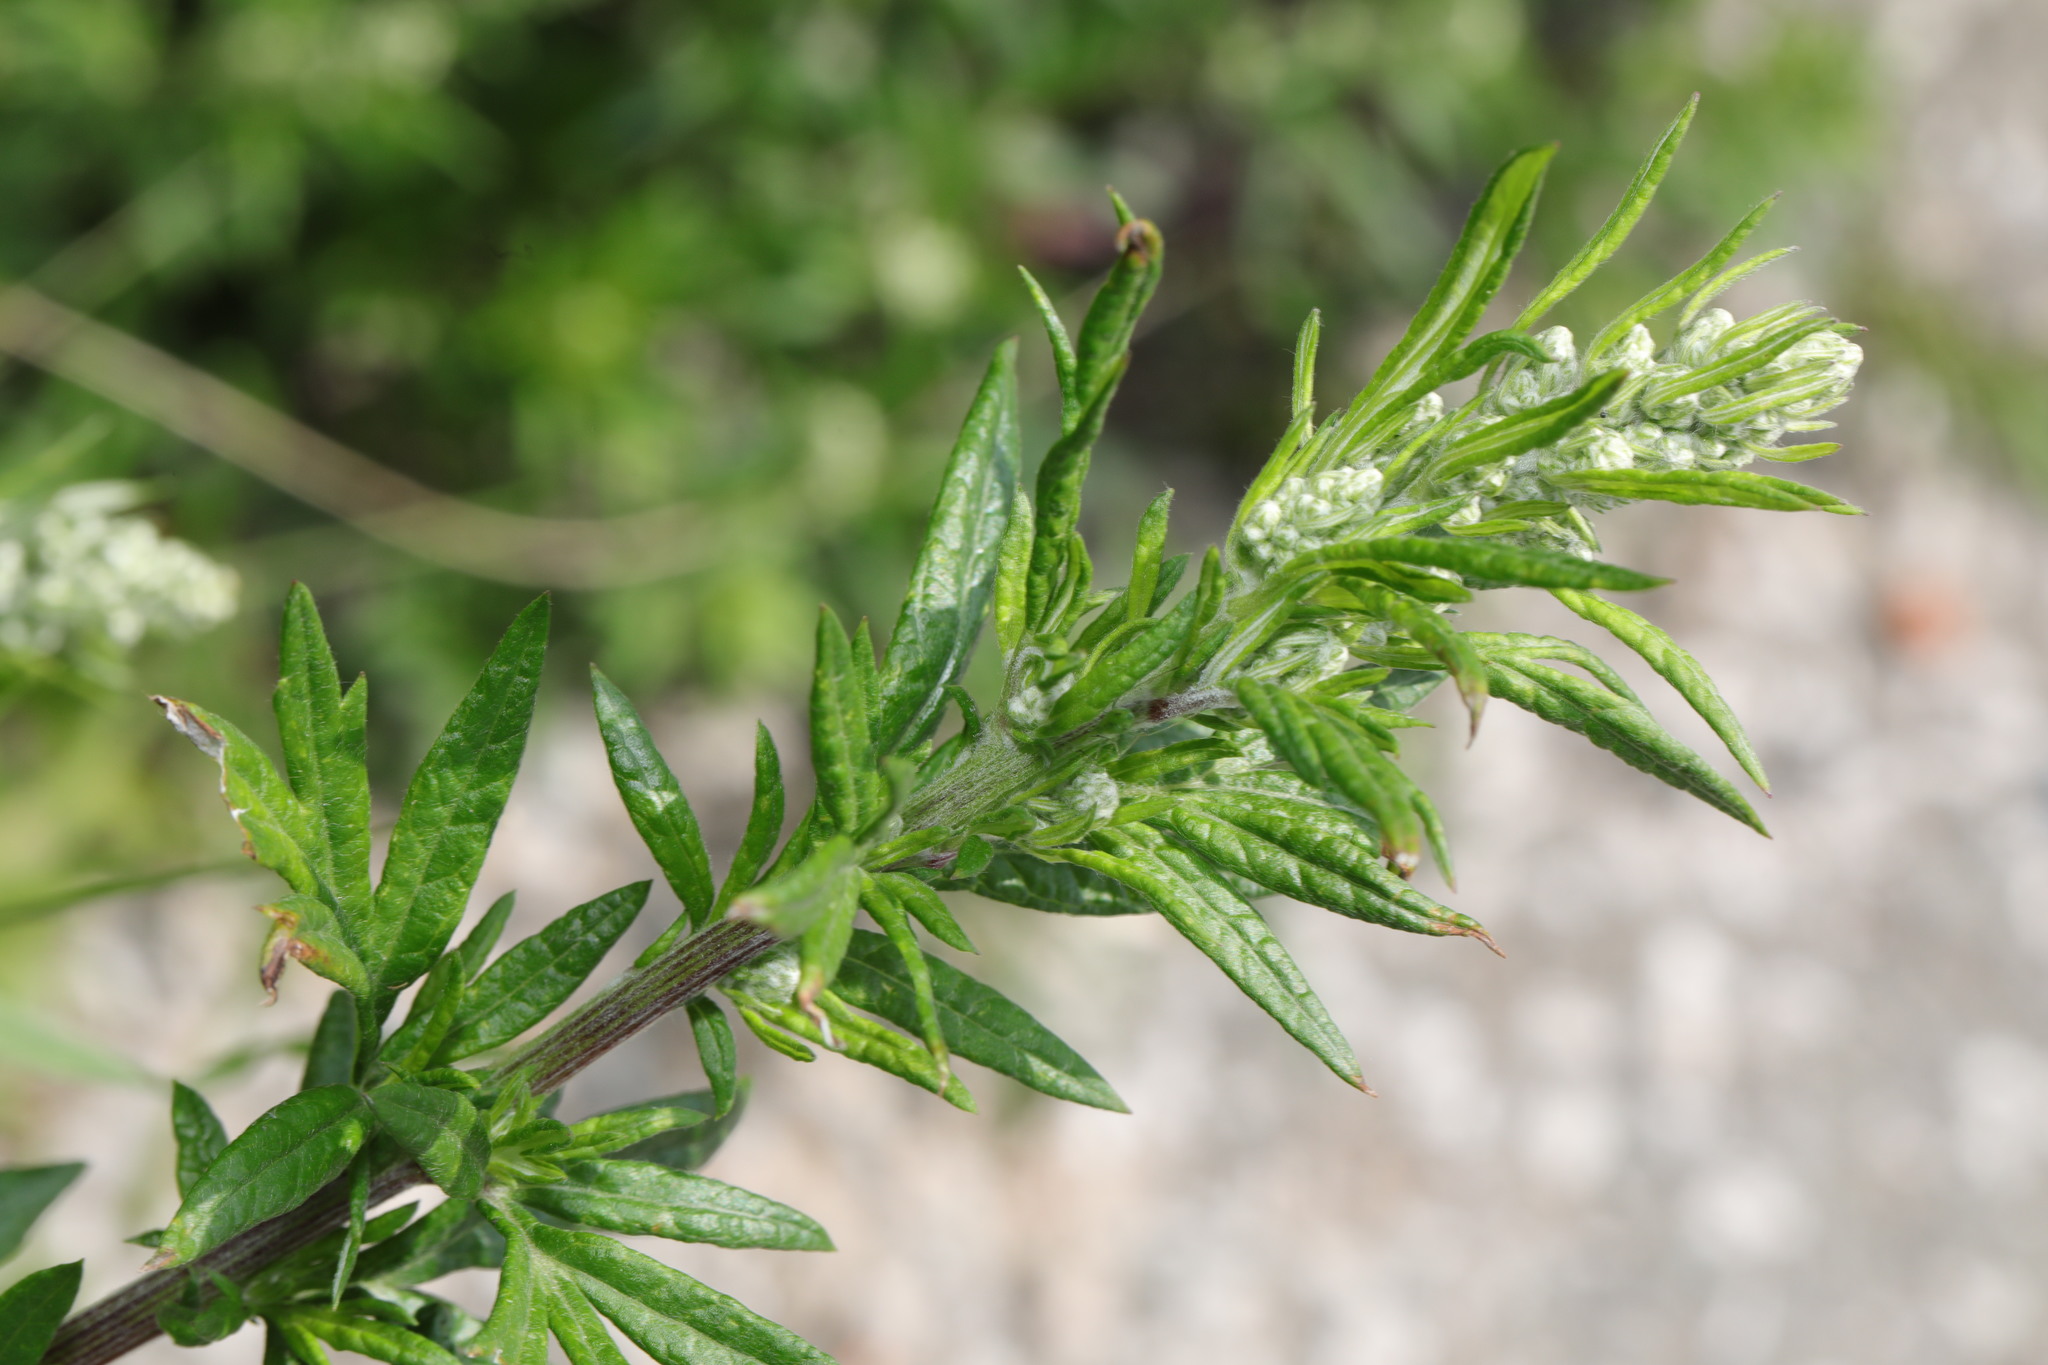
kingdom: Plantae
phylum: Tracheophyta
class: Magnoliopsida
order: Asterales
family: Asteraceae
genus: Artemisia
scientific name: Artemisia vulgaris
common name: Mugwort
